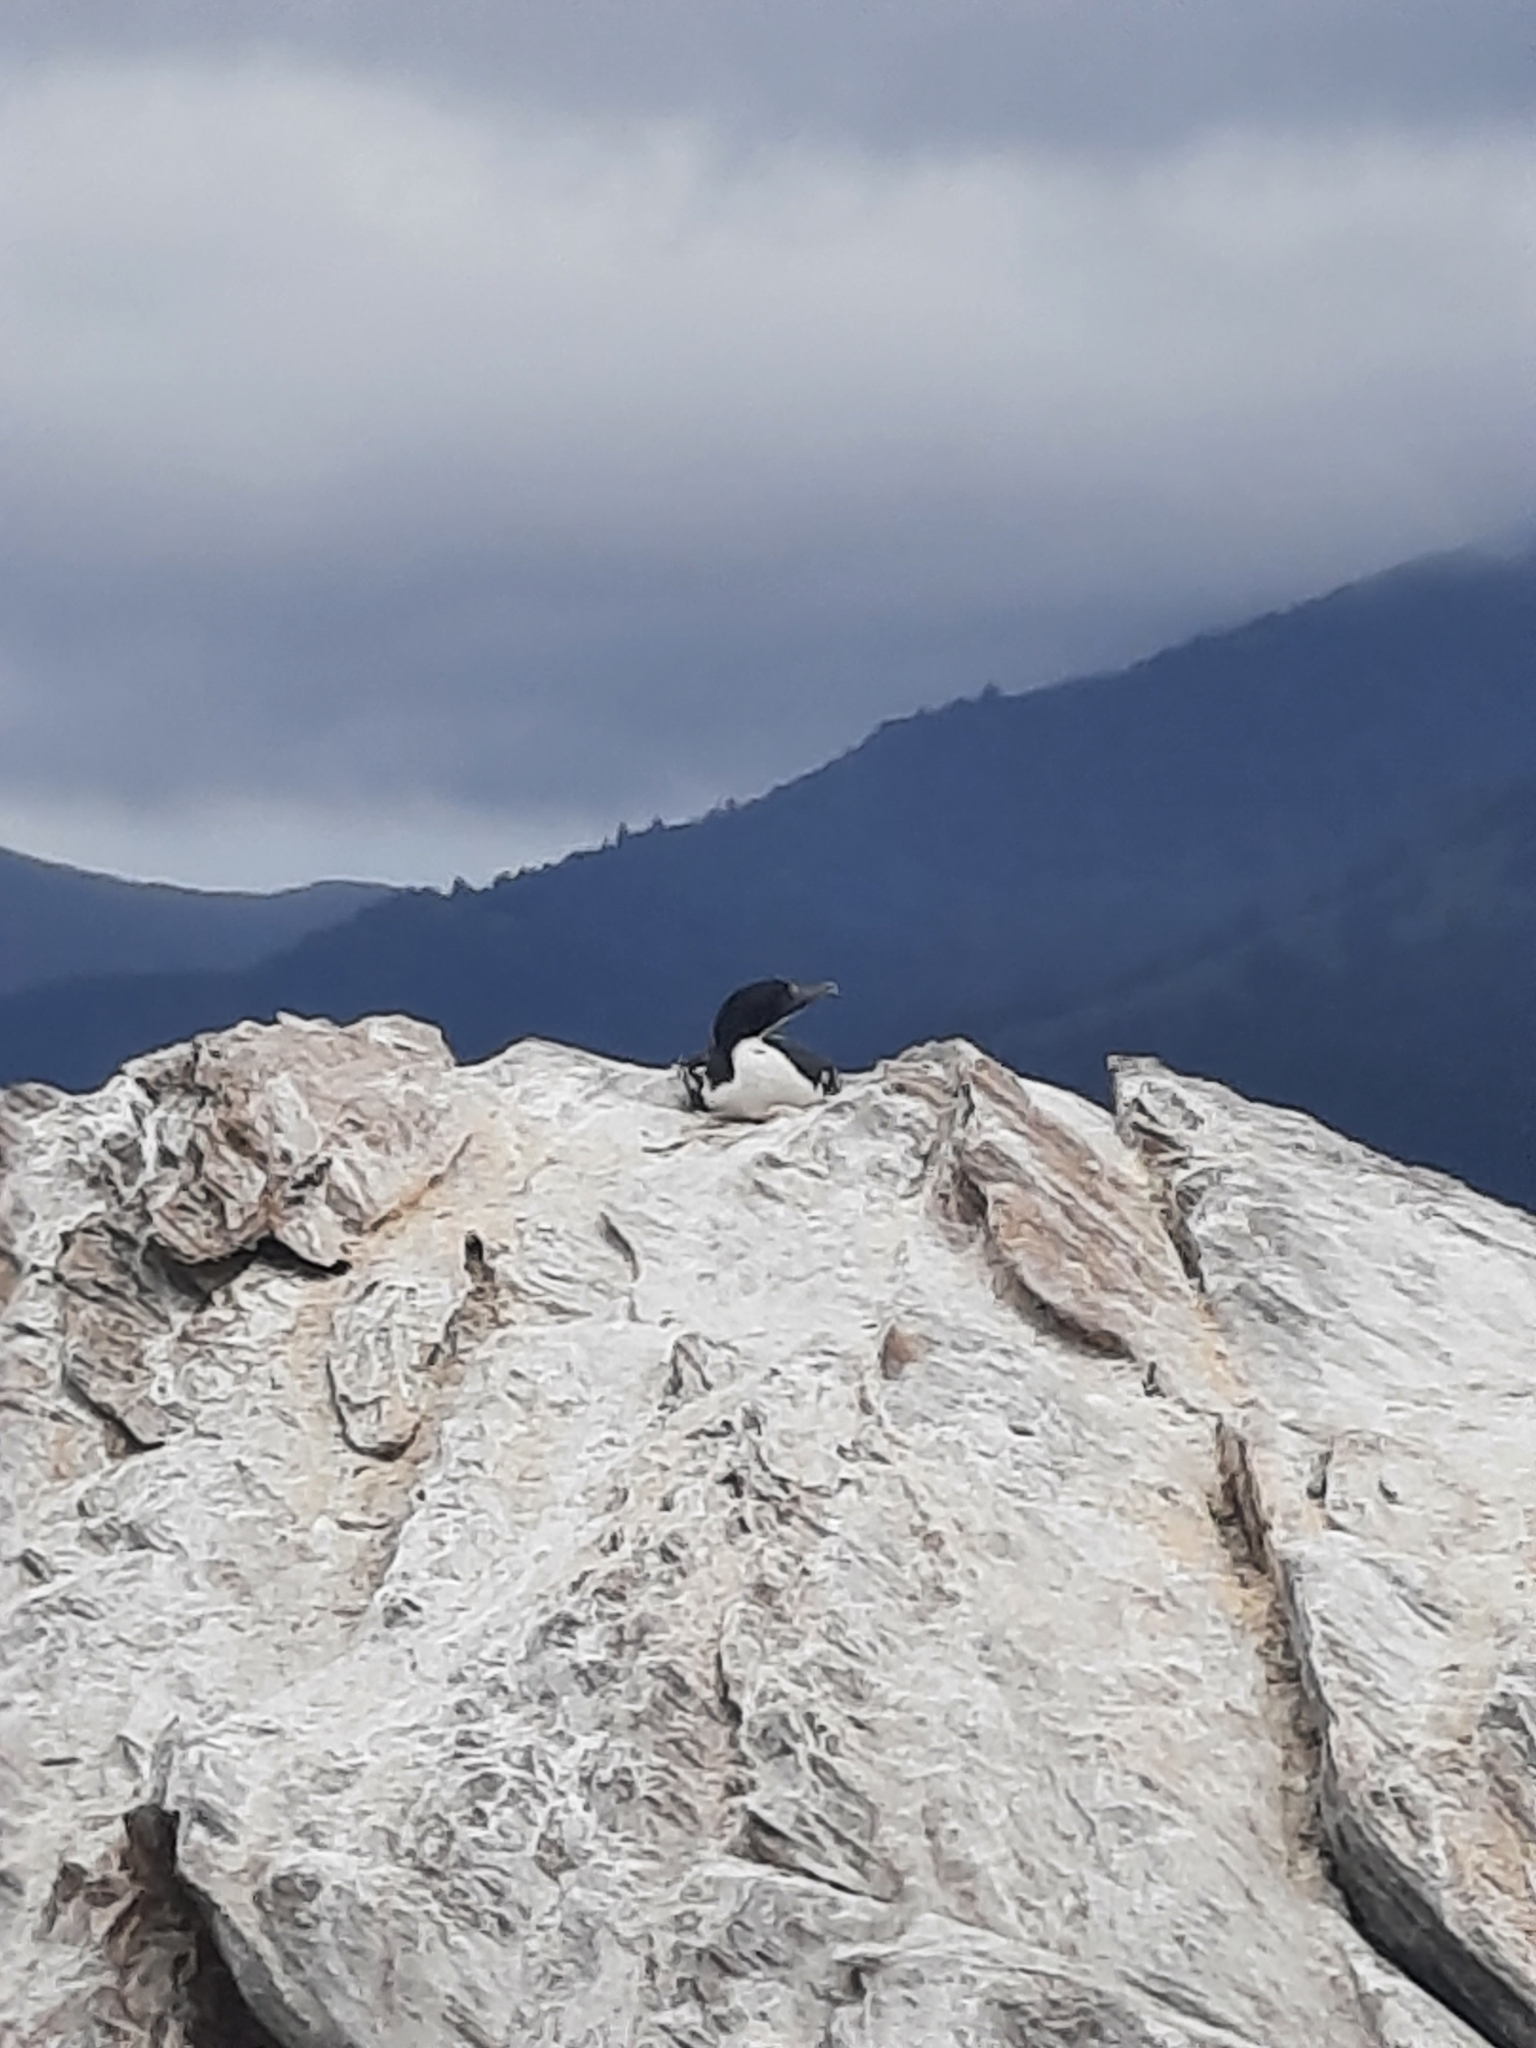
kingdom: Animalia
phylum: Chordata
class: Aves
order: Suliformes
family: Phalacrocoracidae
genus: Leucocarbo
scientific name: Leucocarbo carunculatus
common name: Rough-faced shag
